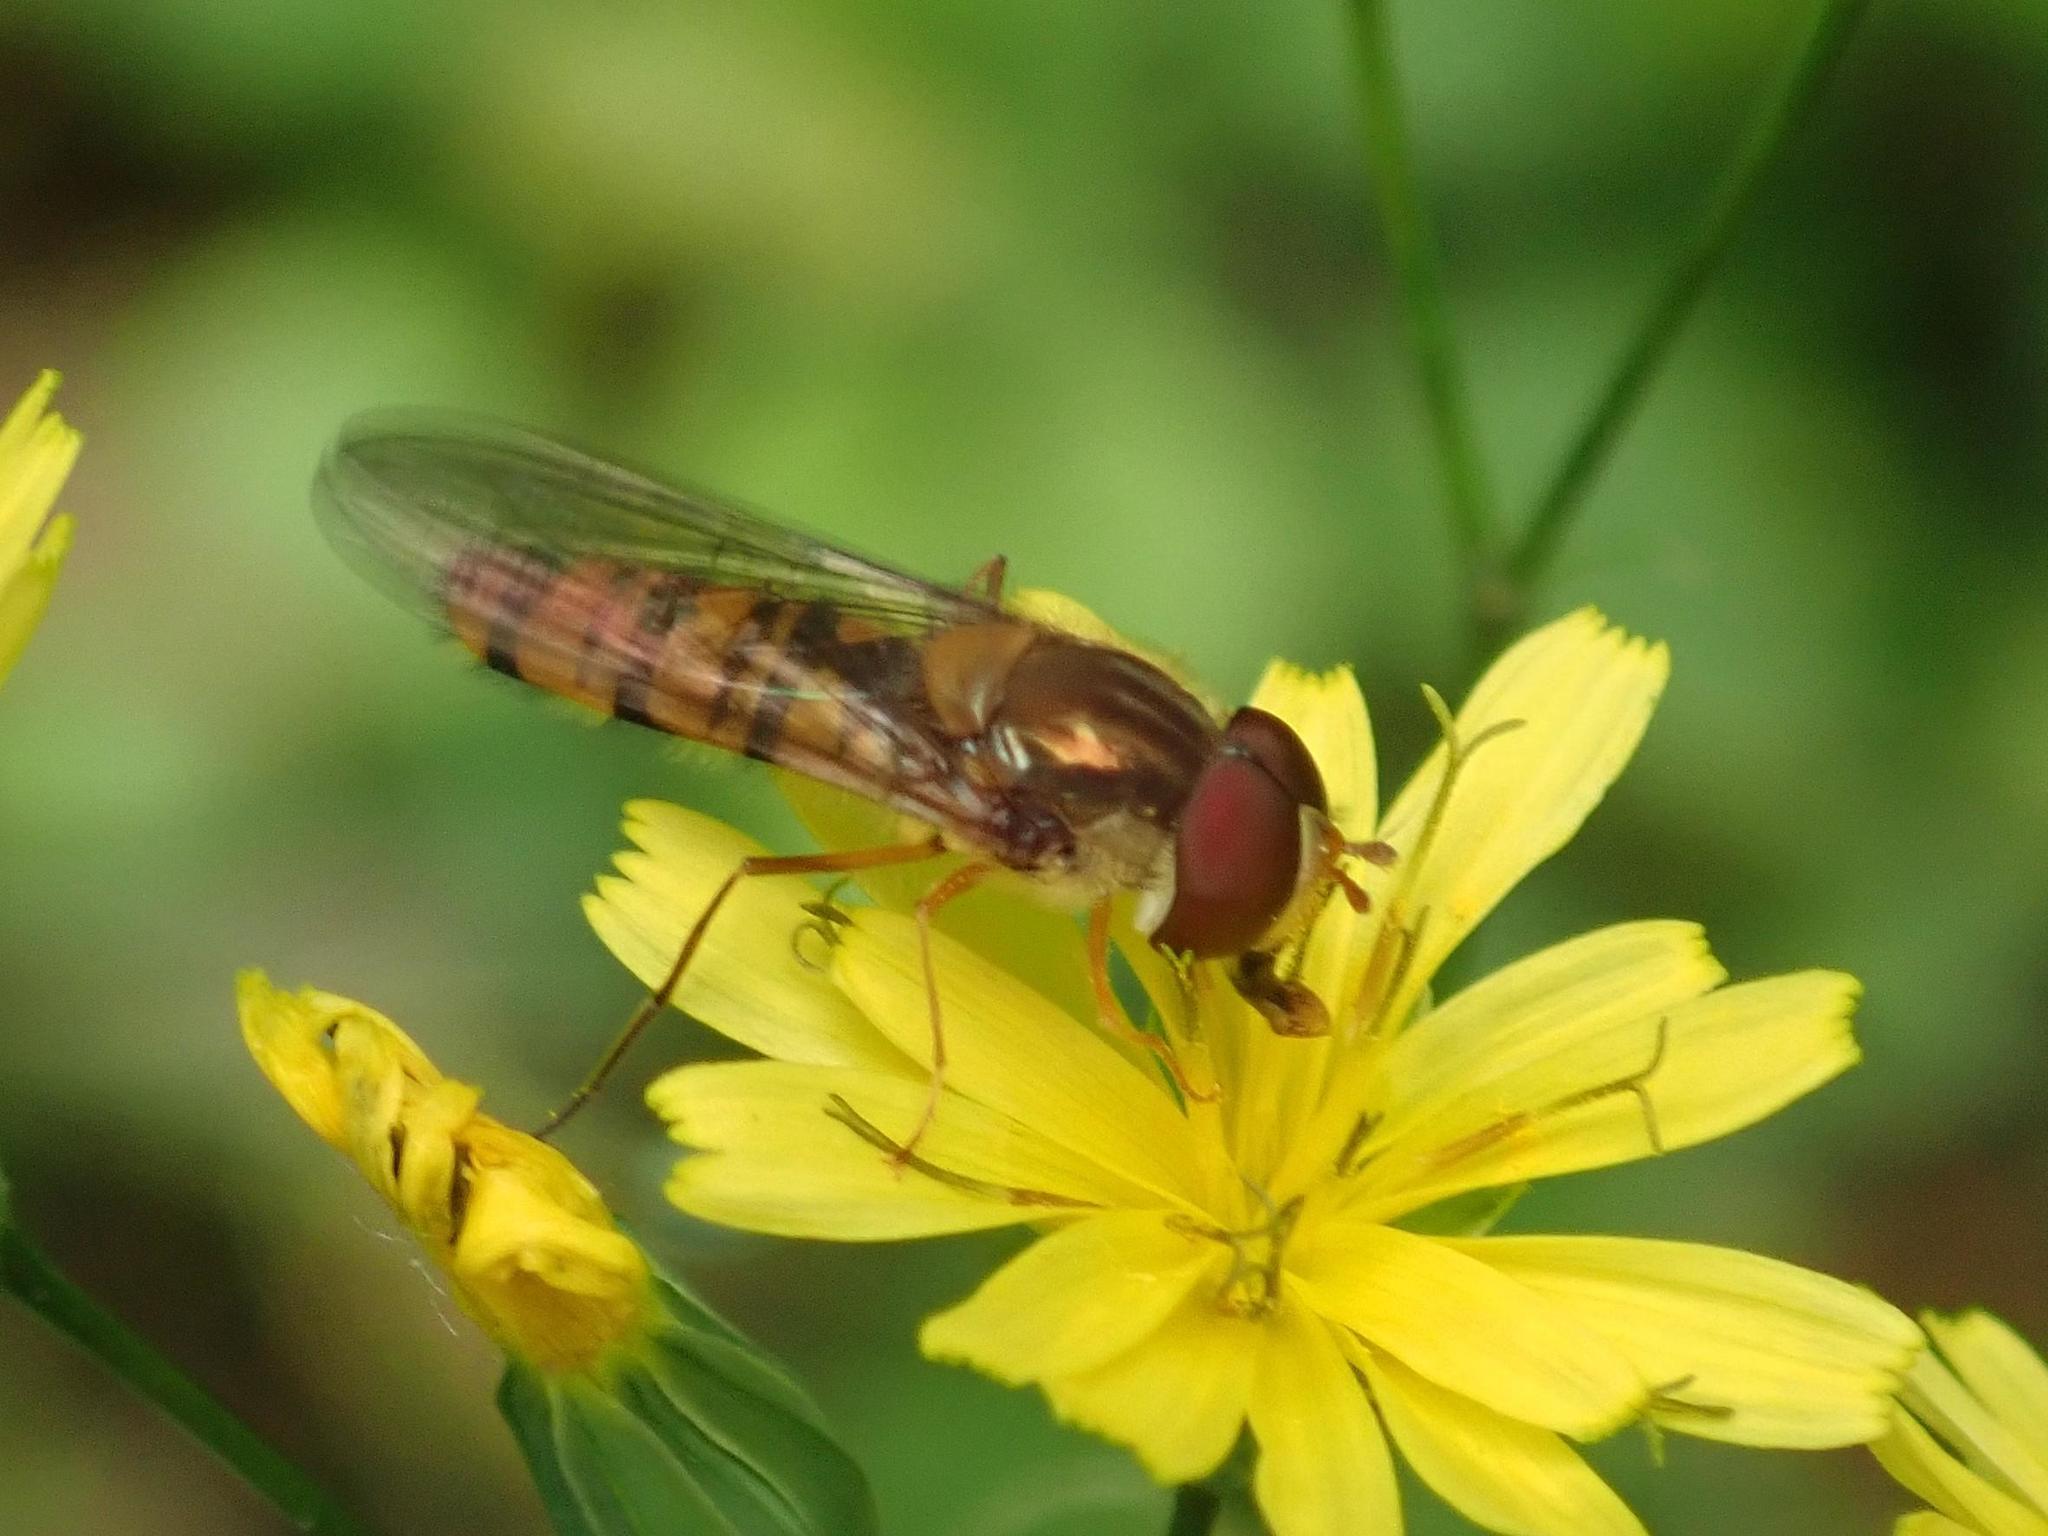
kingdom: Animalia
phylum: Arthropoda
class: Insecta
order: Diptera
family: Syrphidae
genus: Episyrphus
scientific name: Episyrphus balteatus
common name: Marmalade hoverfly
